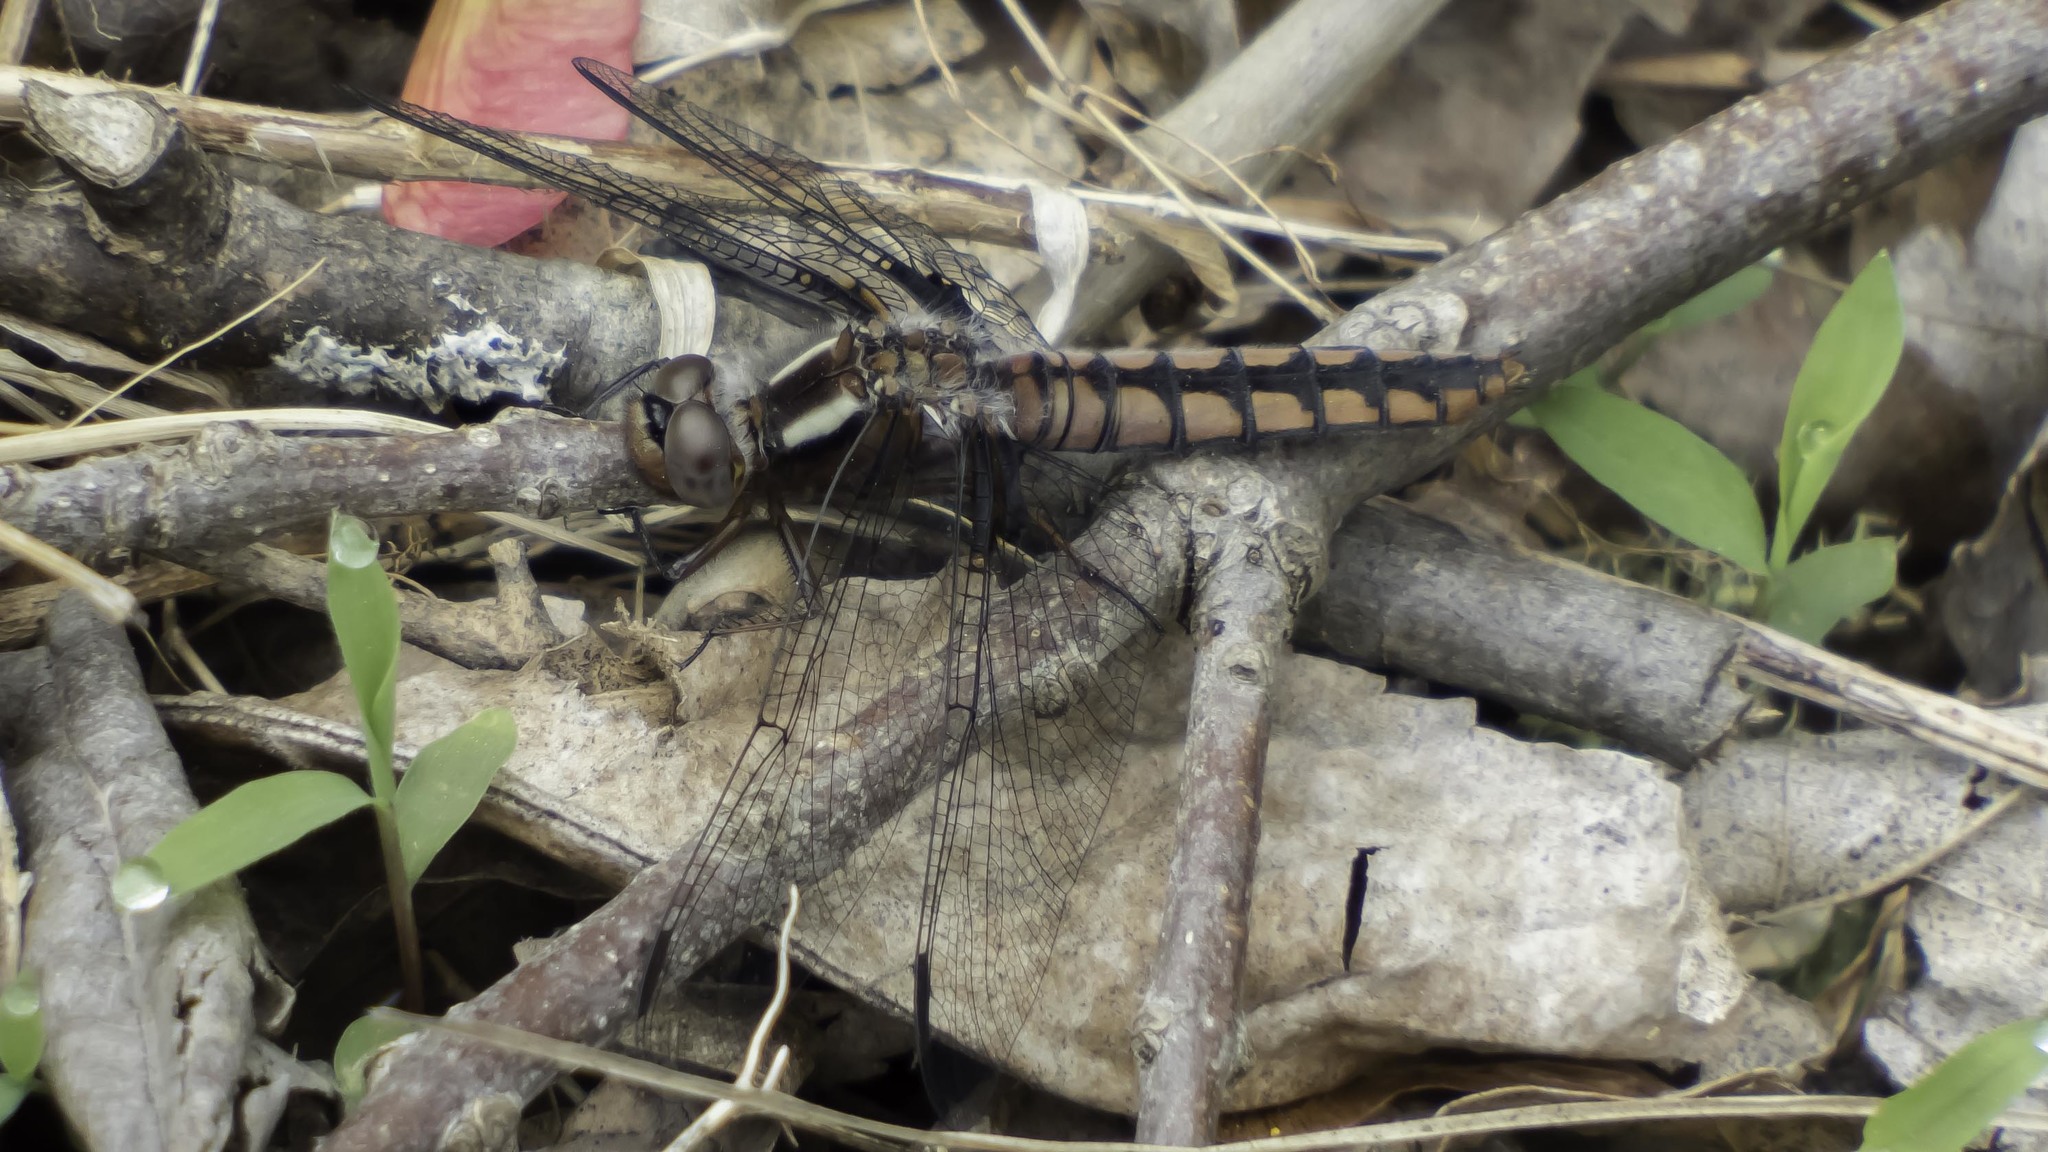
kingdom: Animalia
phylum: Arthropoda
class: Insecta
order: Odonata
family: Libellulidae
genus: Ladona
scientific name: Ladona deplanata
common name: Blue corporal
